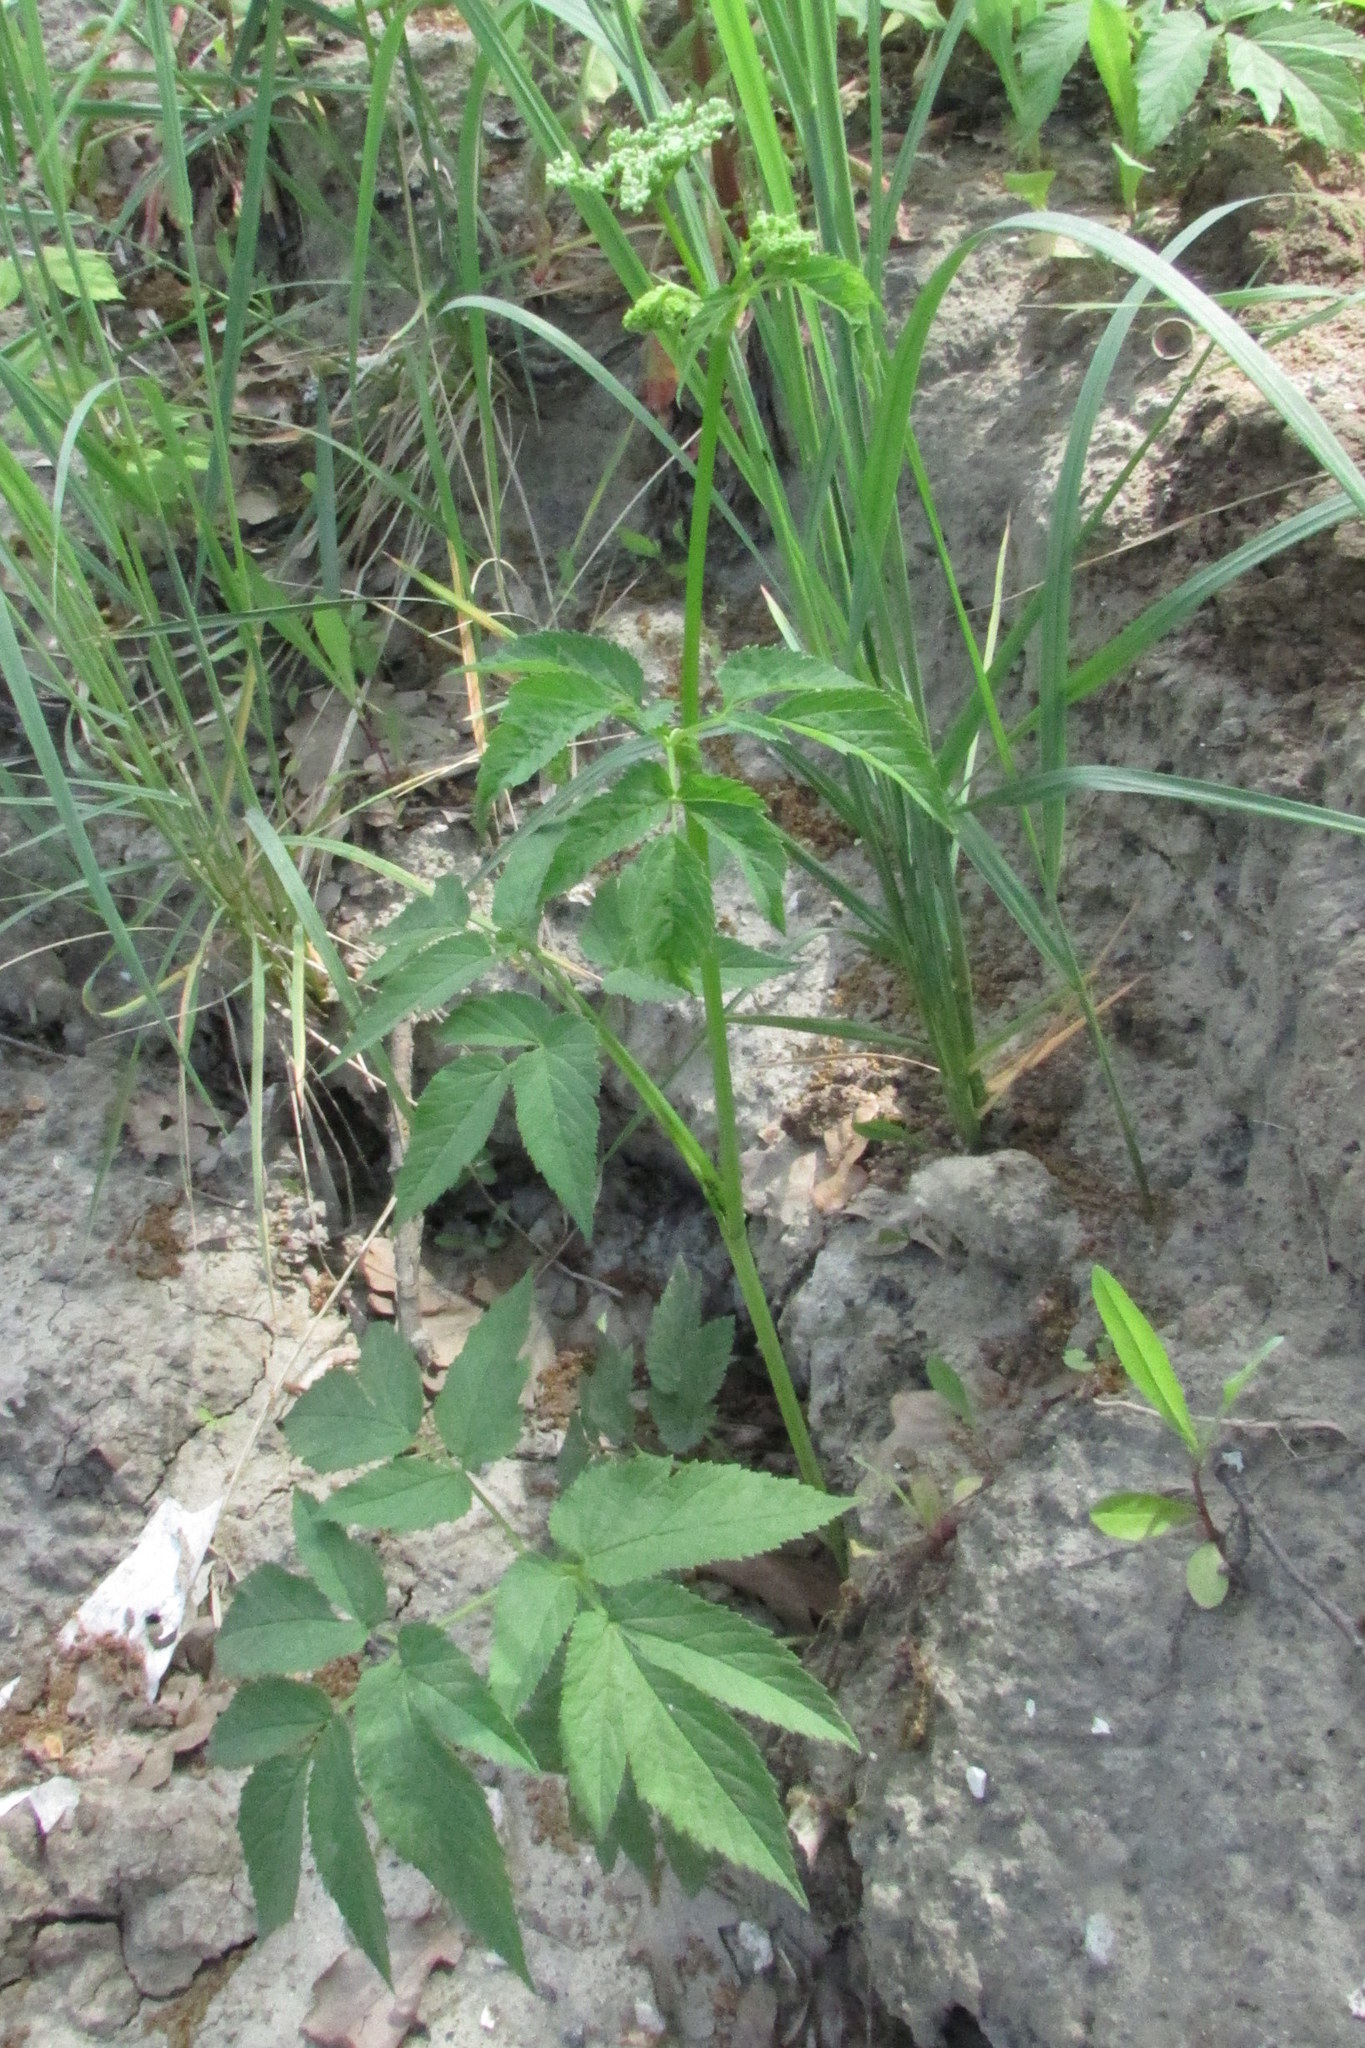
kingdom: Plantae
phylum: Tracheophyta
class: Magnoliopsida
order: Apiales
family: Apiaceae
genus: Aegopodium
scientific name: Aegopodium podagraria
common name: Ground-elder
